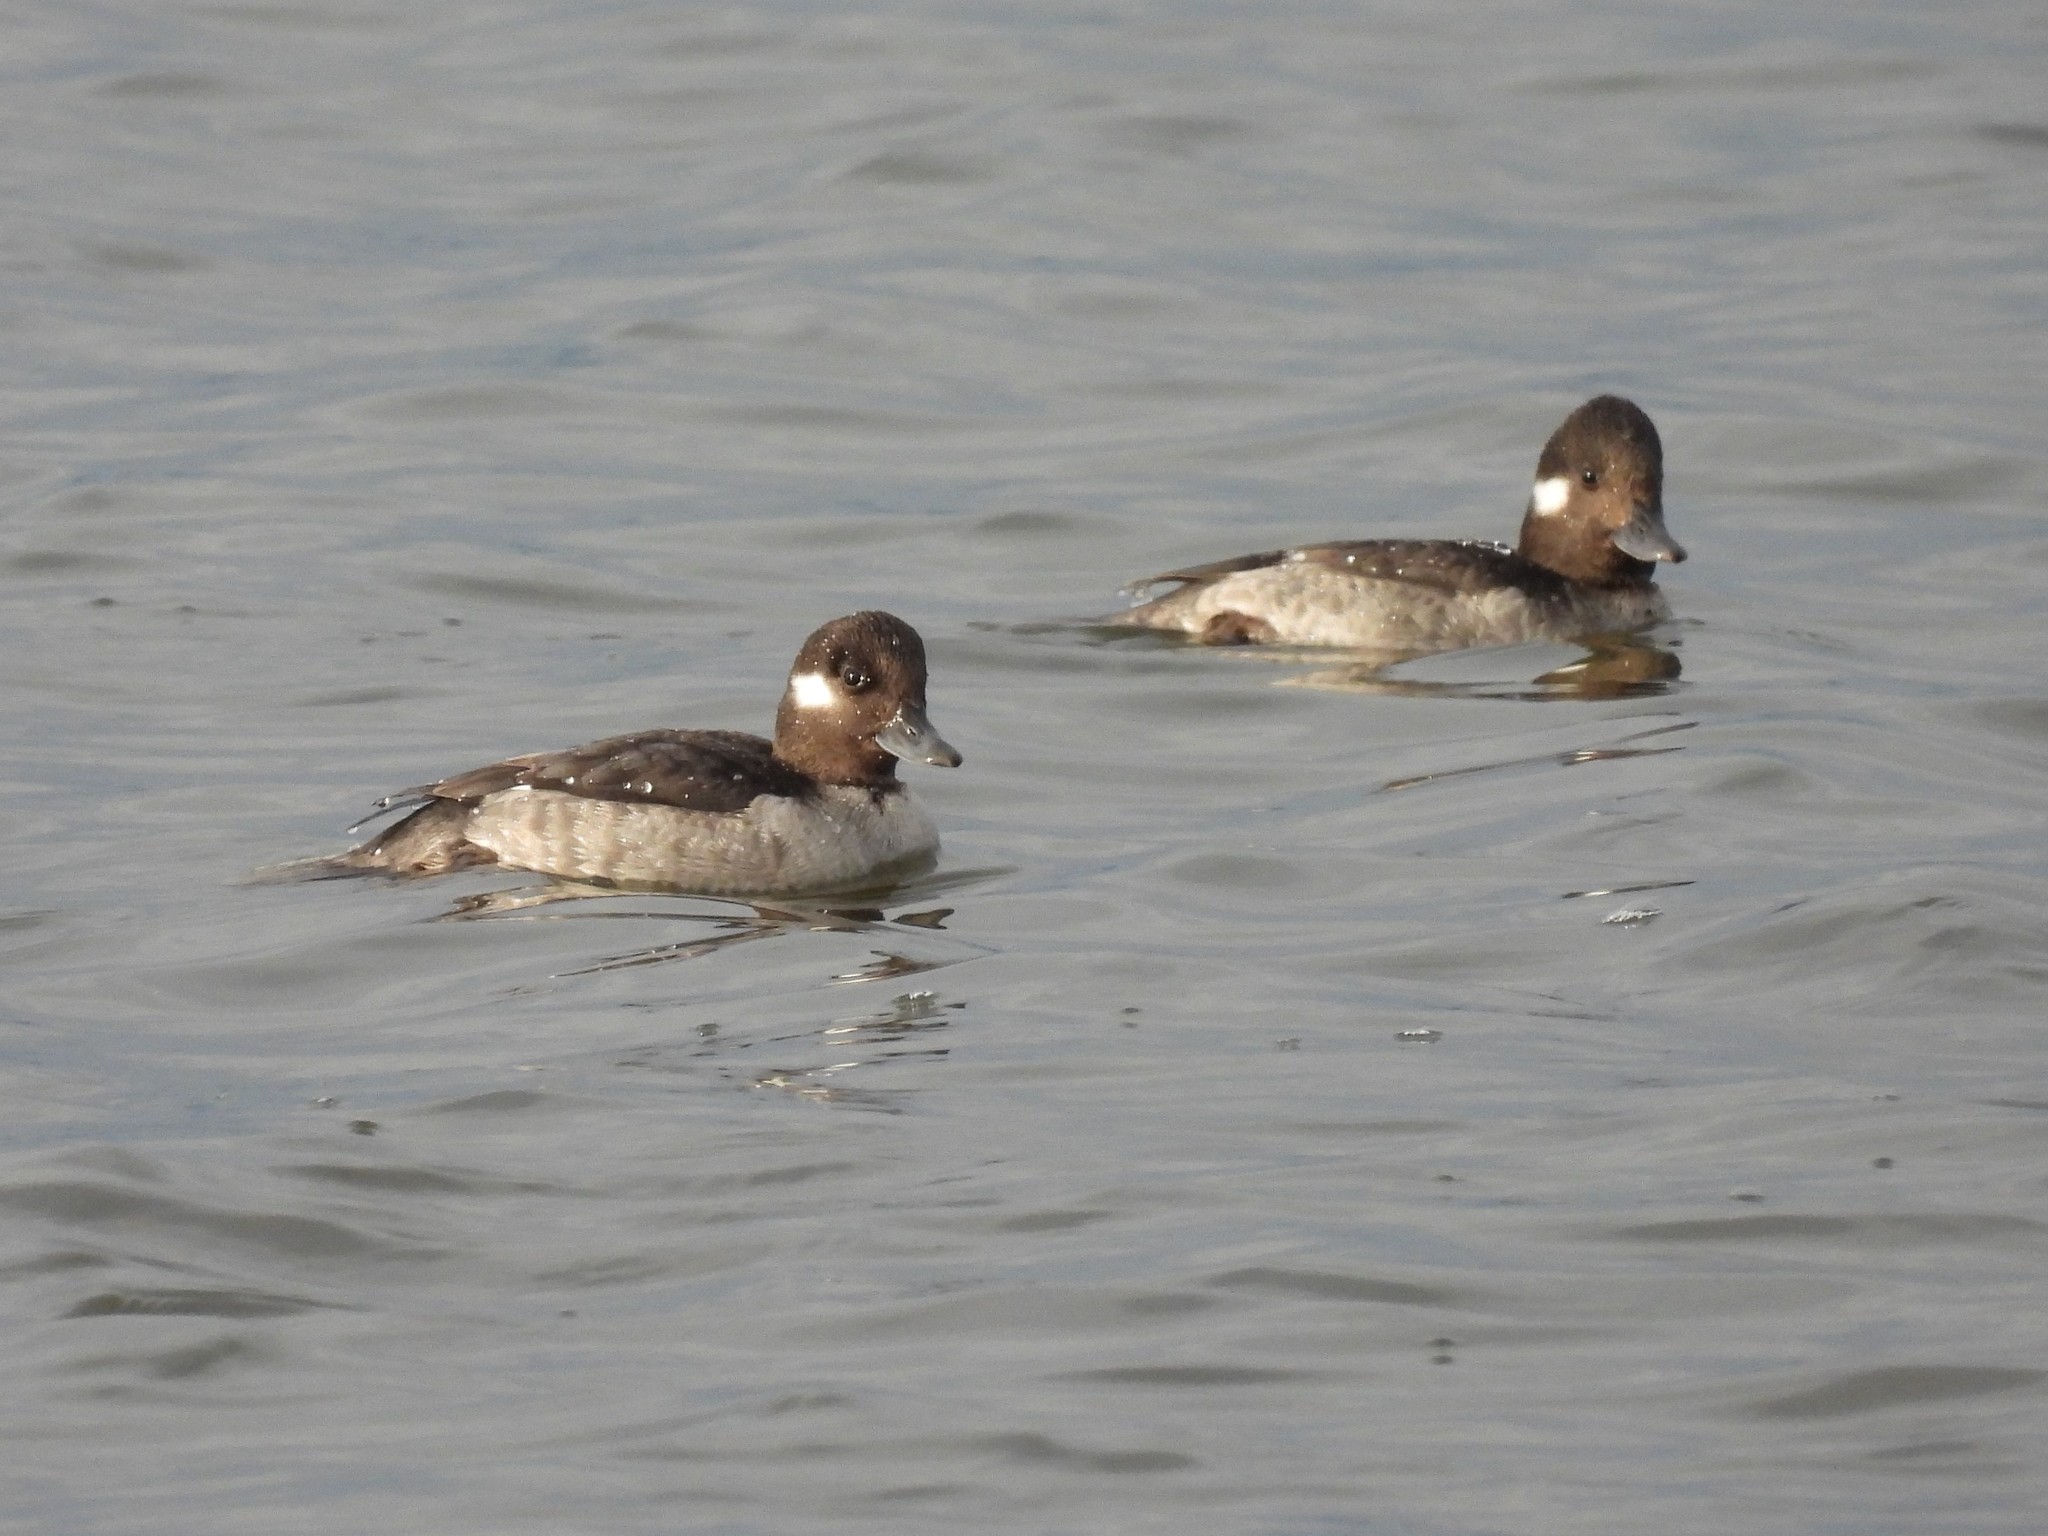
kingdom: Animalia
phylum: Chordata
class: Aves
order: Anseriformes
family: Anatidae
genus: Bucephala
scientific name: Bucephala albeola
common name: Bufflehead
